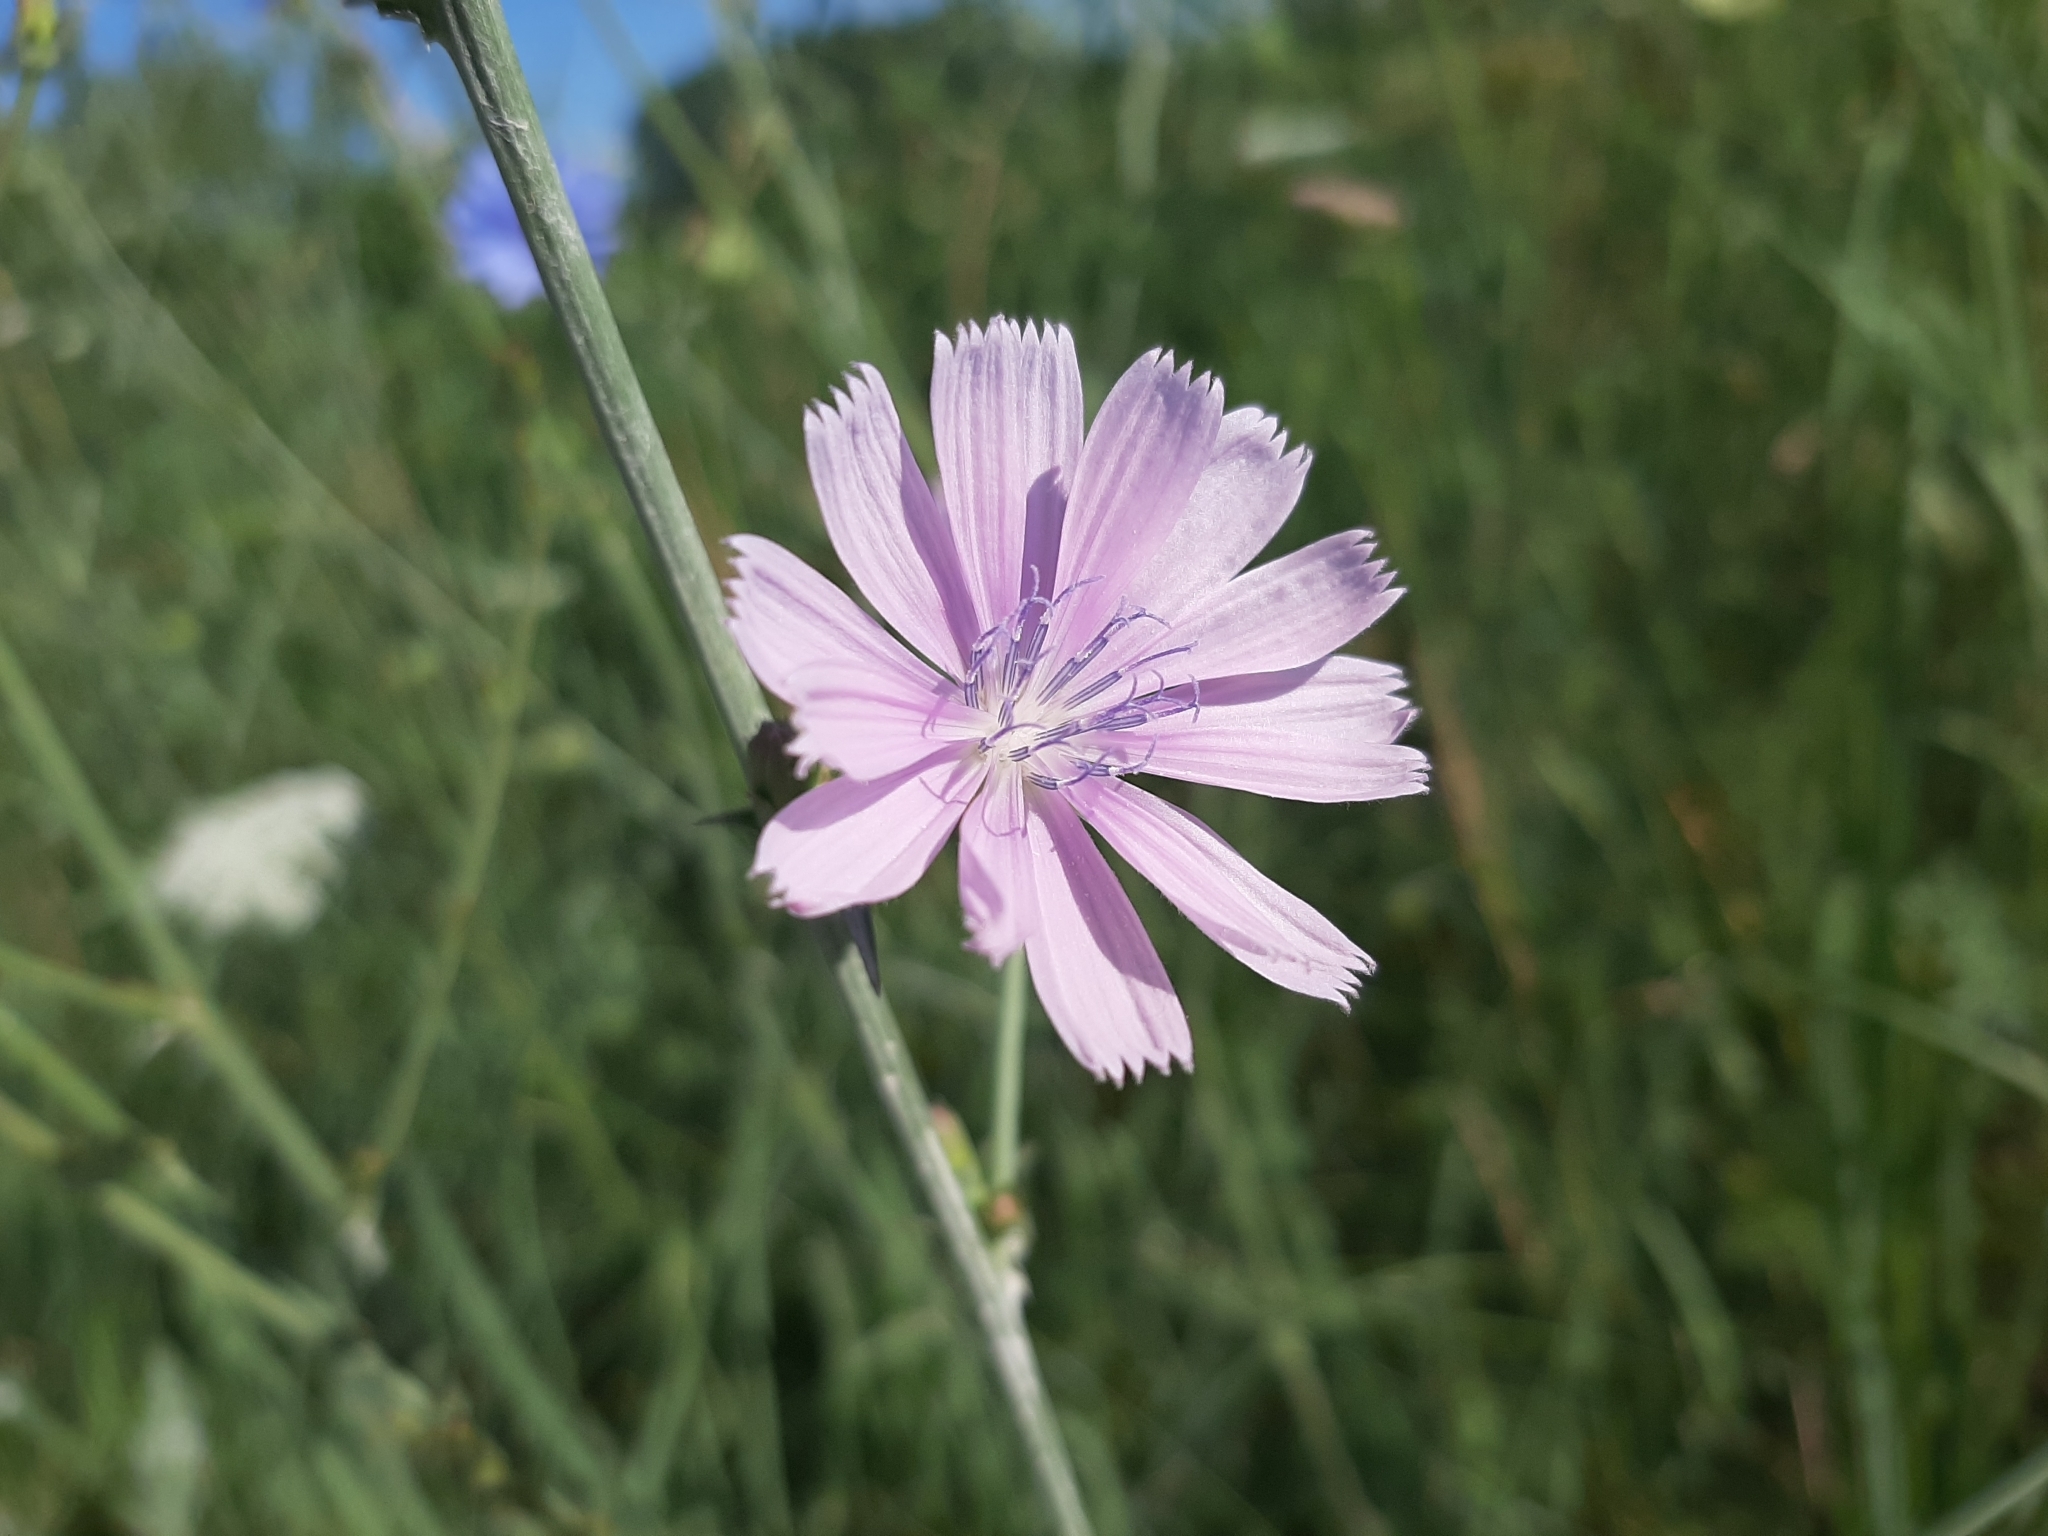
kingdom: Plantae
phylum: Tracheophyta
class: Magnoliopsida
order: Asterales
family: Asteraceae
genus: Cichorium
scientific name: Cichorium intybus
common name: Chicory
